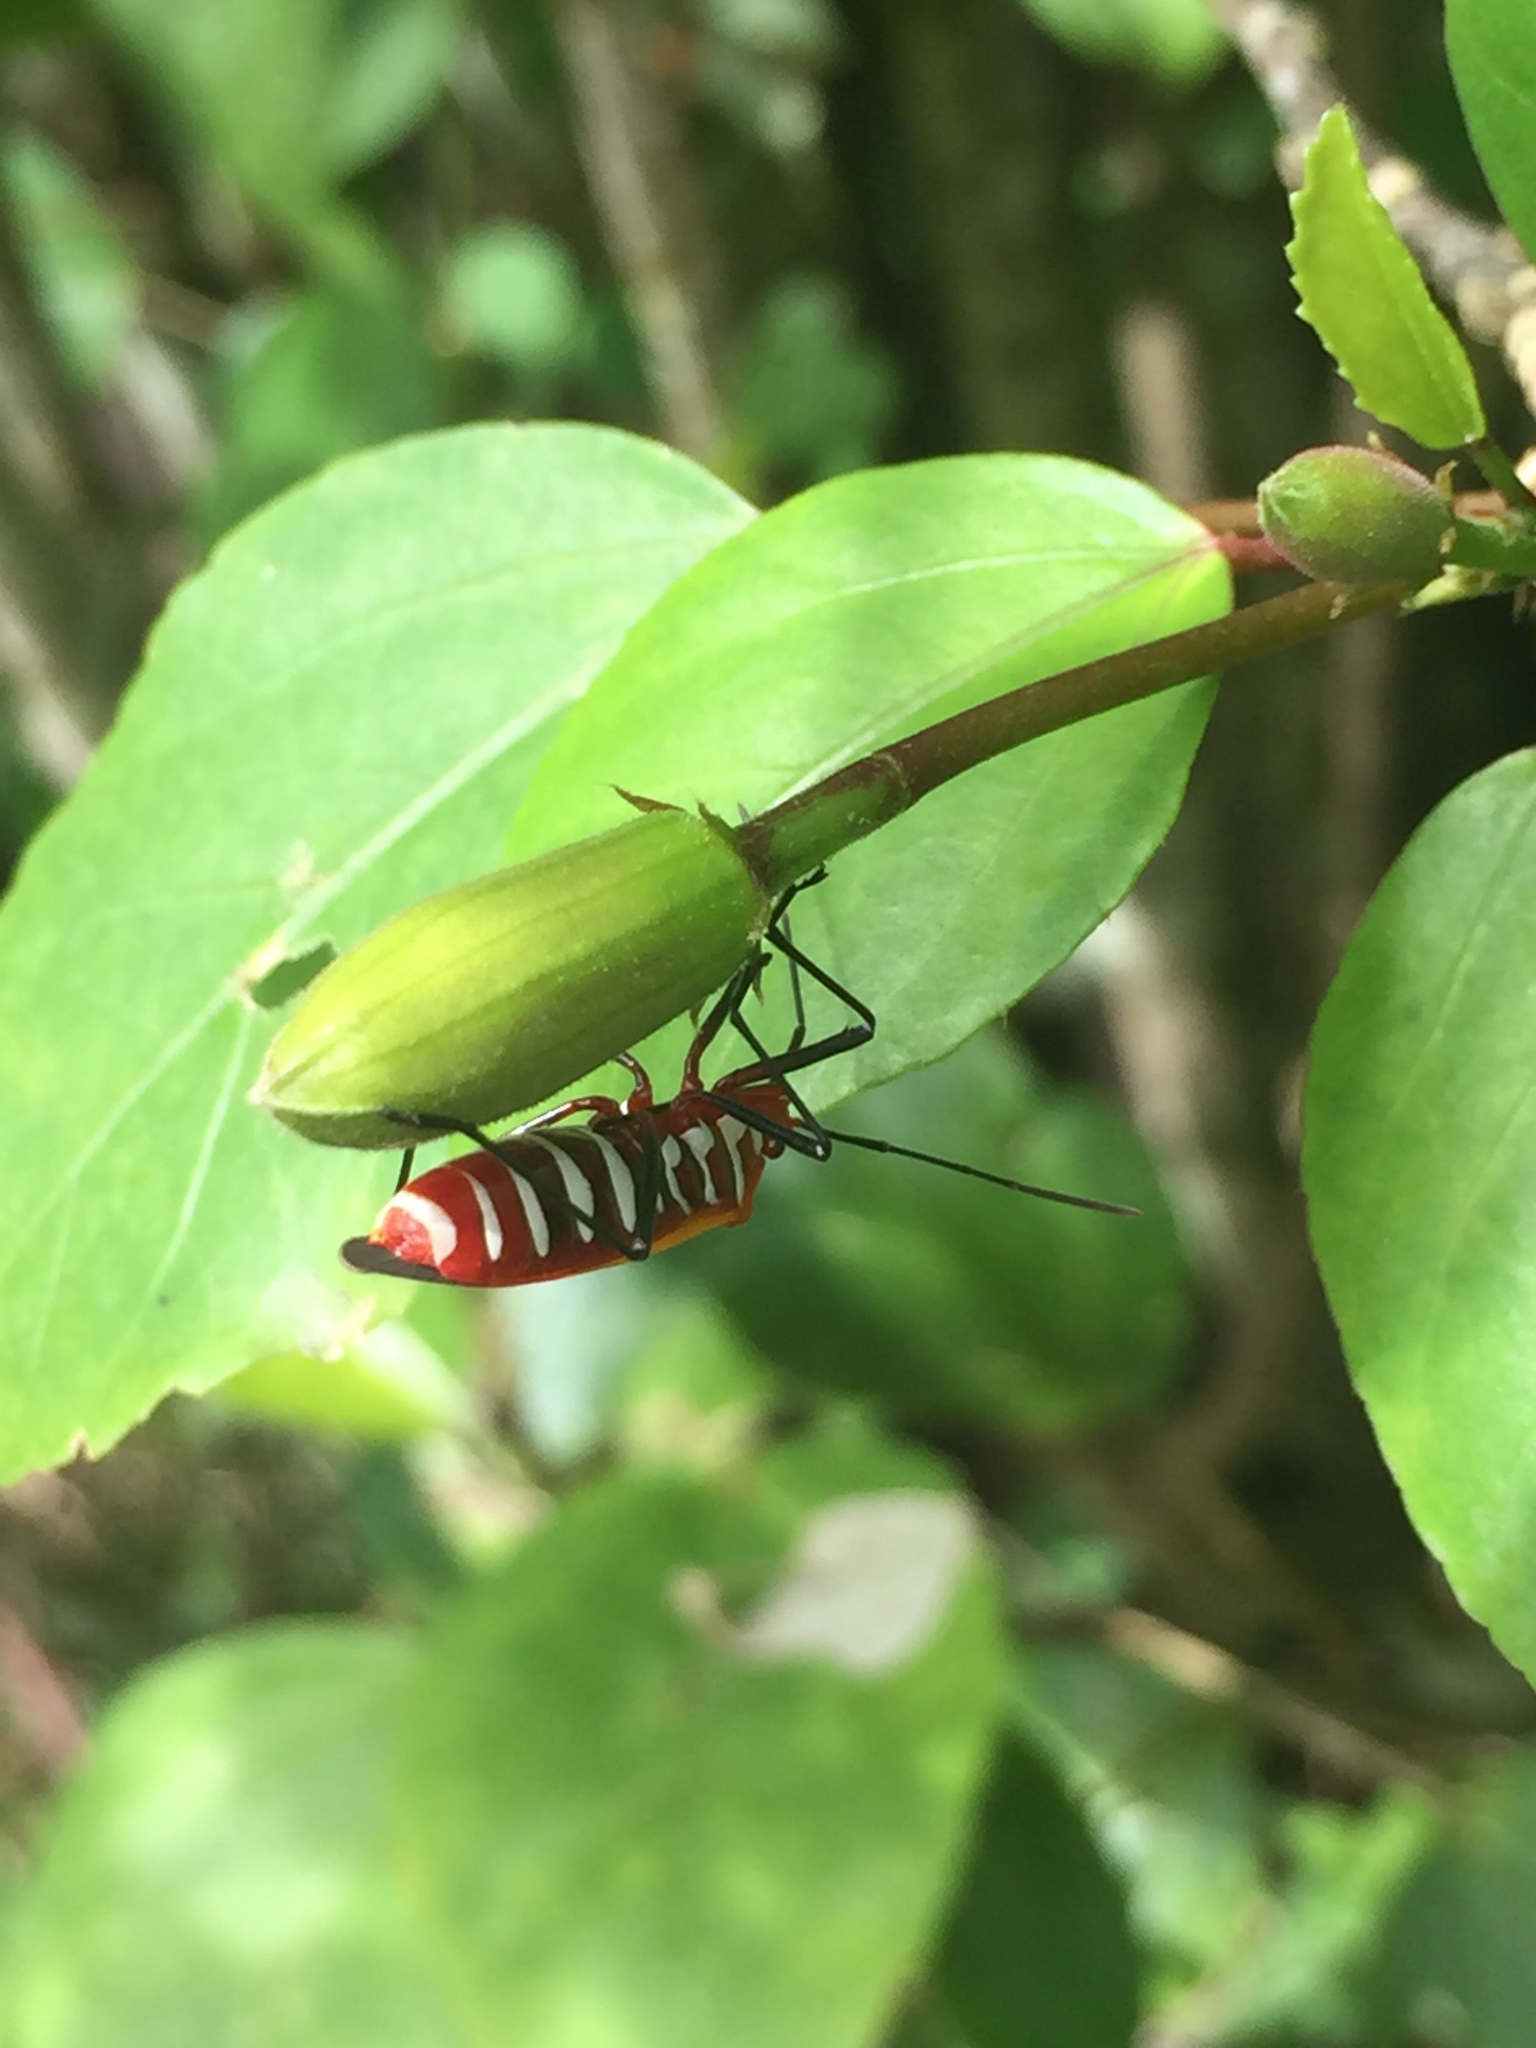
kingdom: Animalia
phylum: Arthropoda
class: Insecta
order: Hemiptera
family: Pyrrhocoridae
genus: Dysdercus
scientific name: Dysdercus cingulatus
